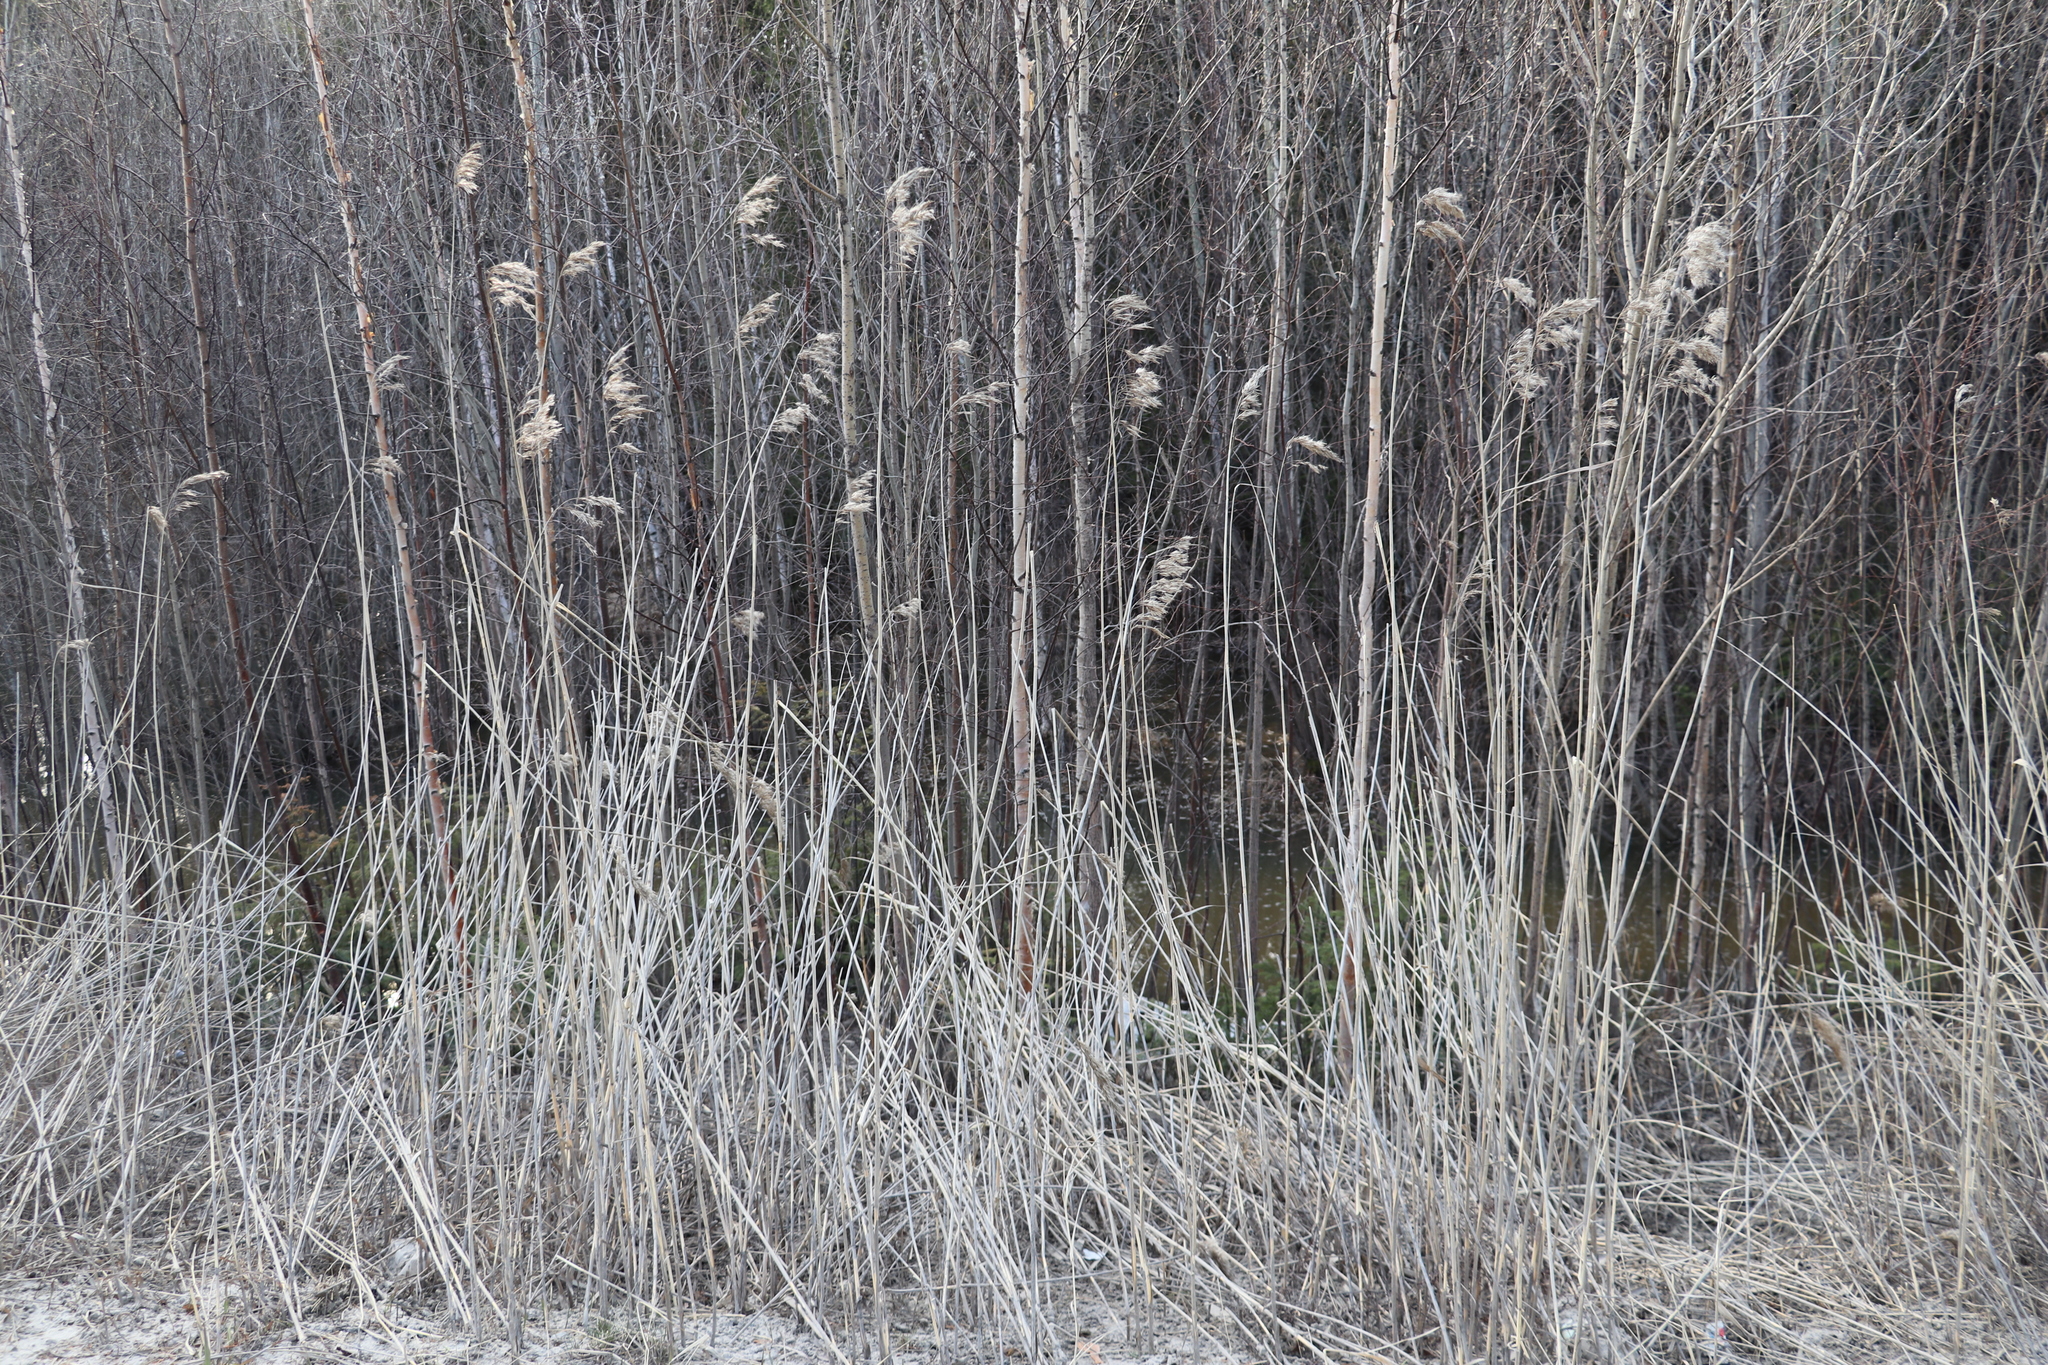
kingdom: Plantae
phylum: Tracheophyta
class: Liliopsida
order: Poales
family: Poaceae
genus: Phragmites
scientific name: Phragmites australis
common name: Common reed
